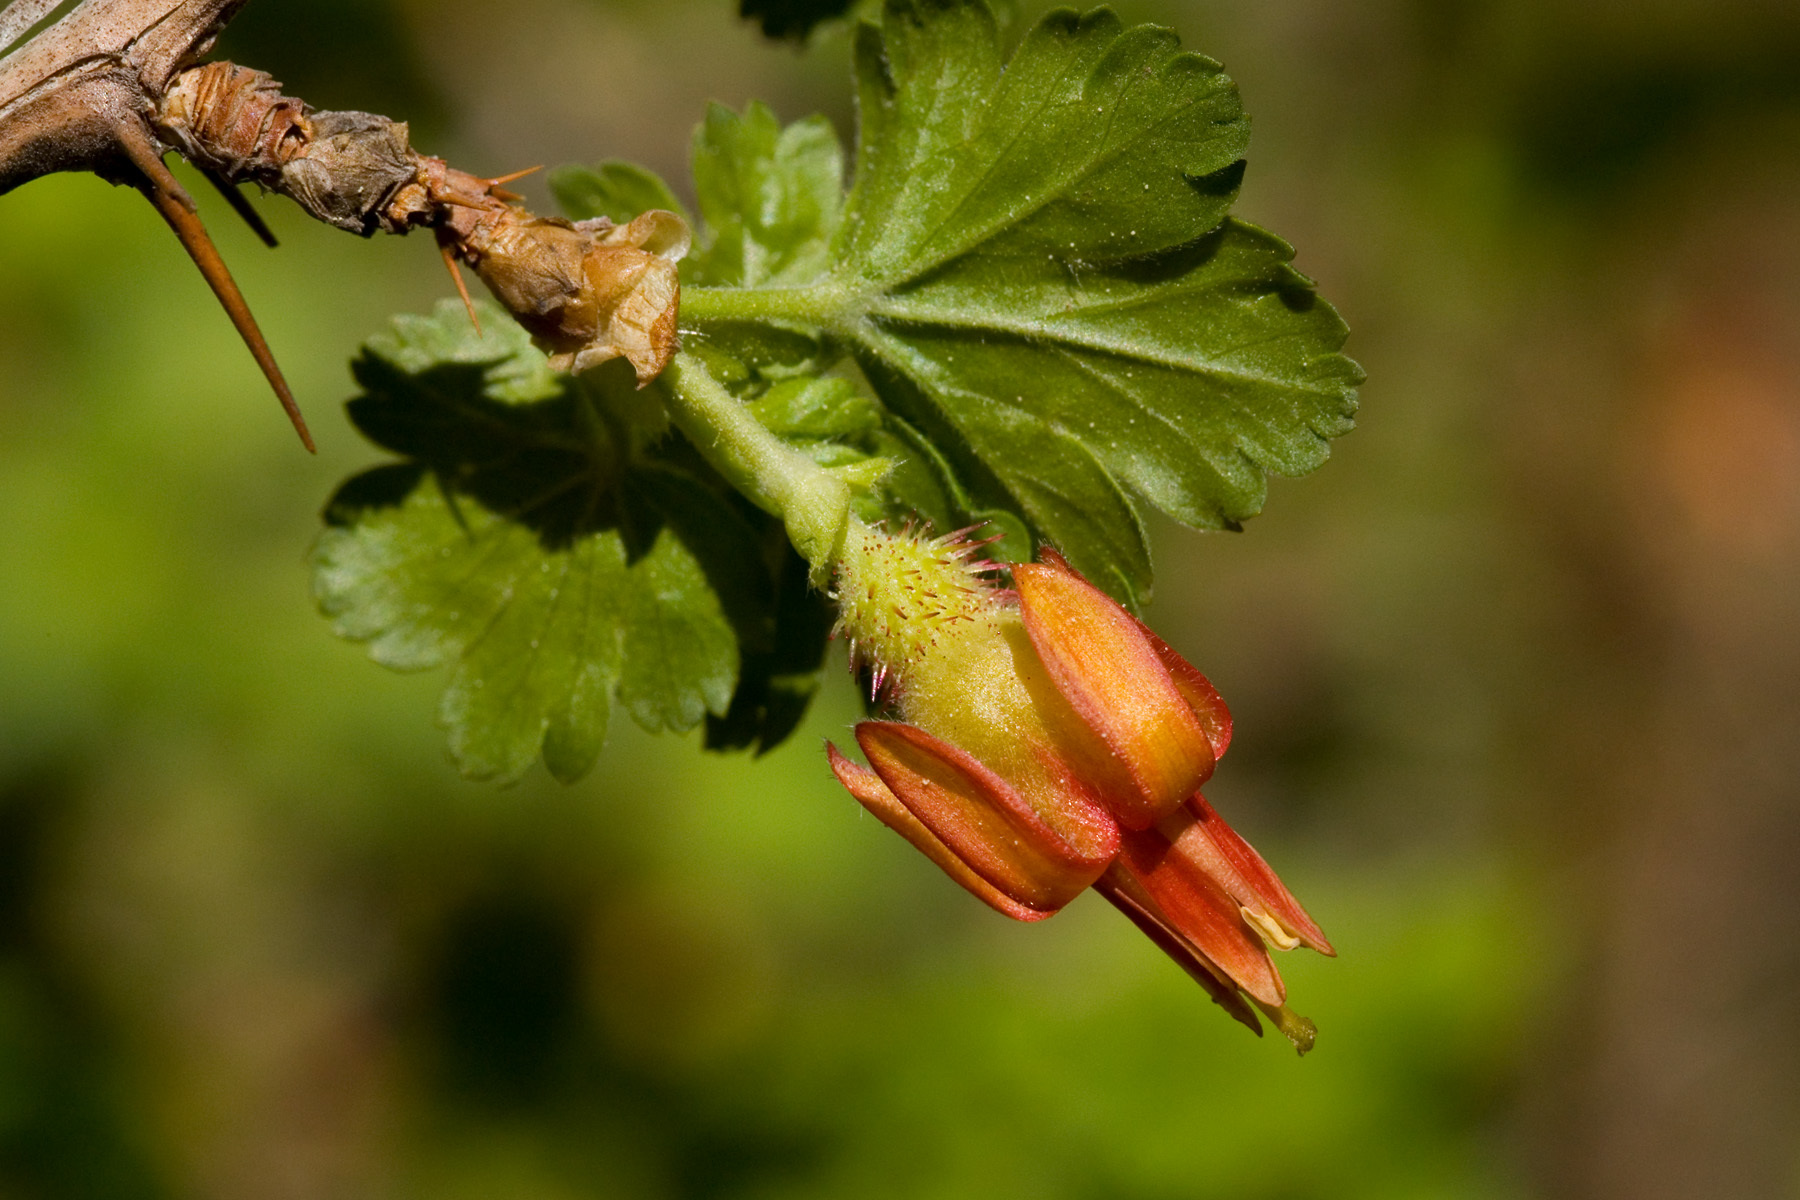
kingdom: Plantae
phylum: Tracheophyta
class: Magnoliopsida
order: Saxifragales
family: Grossulariaceae
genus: Ribes
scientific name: Ribes pinetorum
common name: Orange gooseberry
